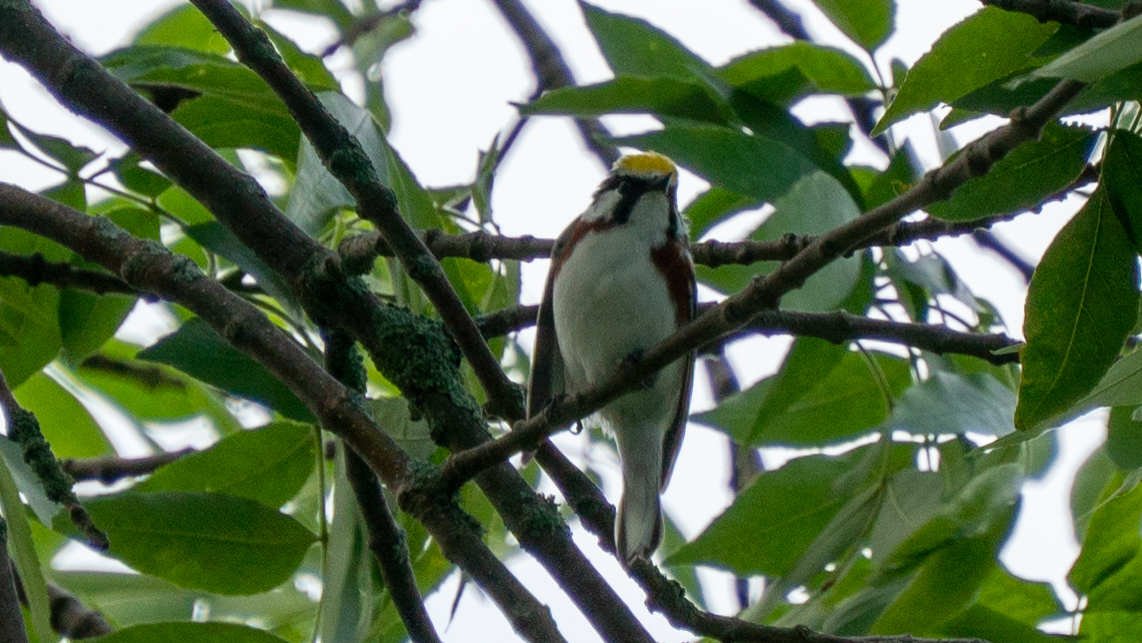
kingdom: Animalia
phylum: Chordata
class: Aves
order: Passeriformes
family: Parulidae
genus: Setophaga
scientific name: Setophaga pensylvanica
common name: Chestnut-sided warbler
